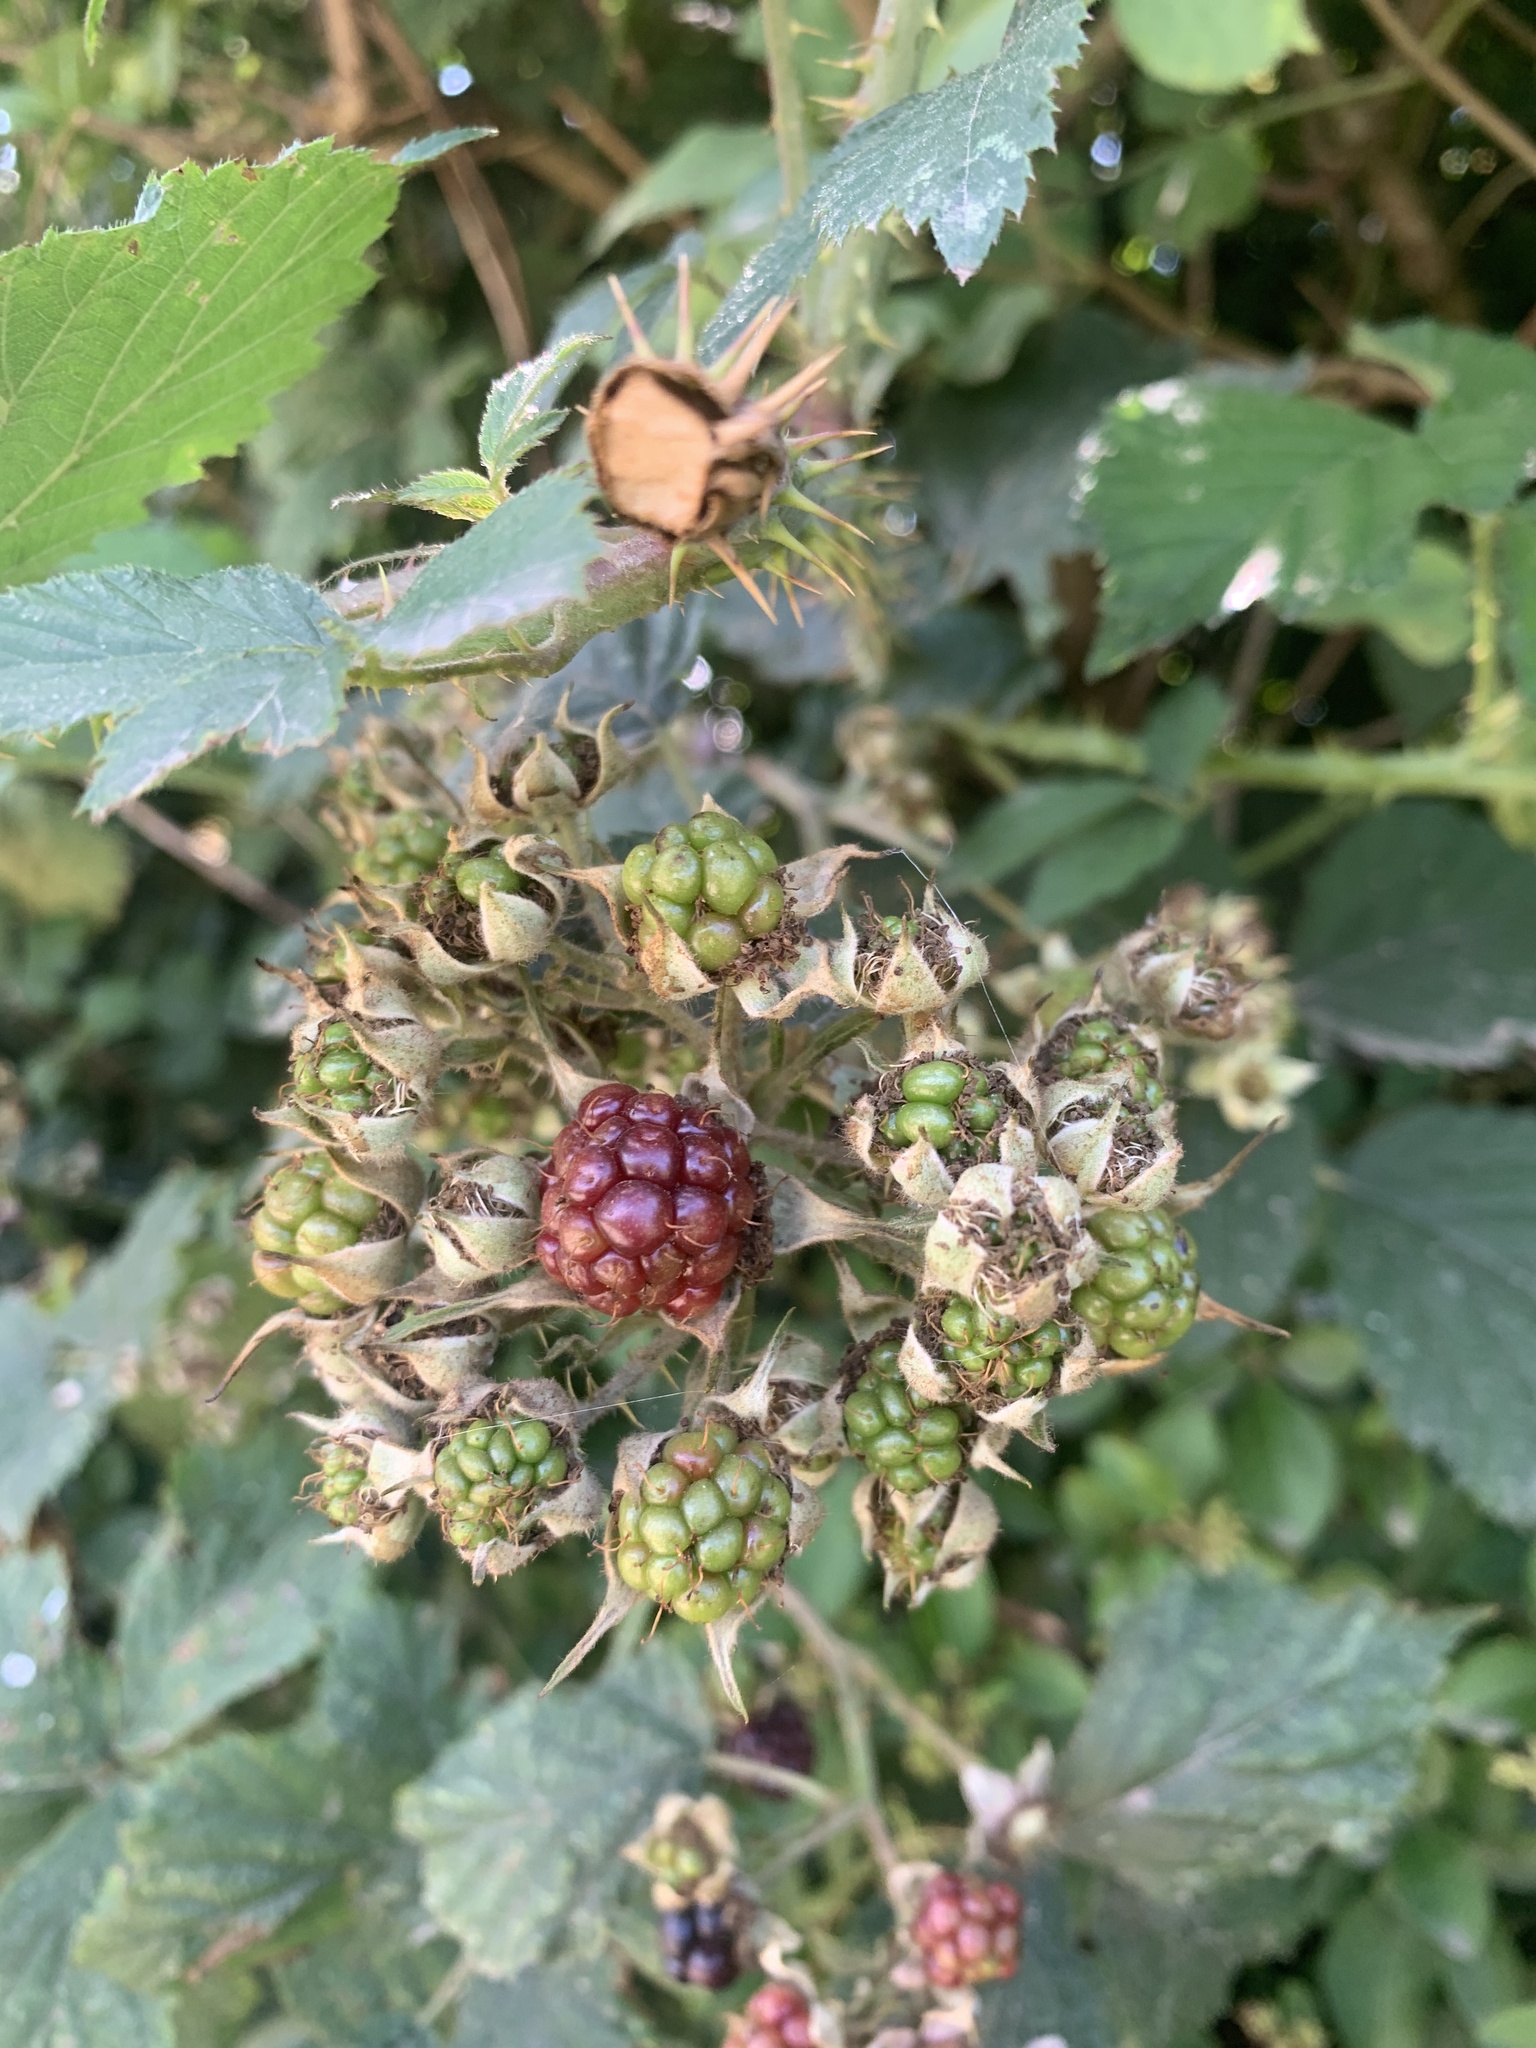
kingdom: Plantae
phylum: Tracheophyta
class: Magnoliopsida
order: Rosales
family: Rosaceae
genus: Rubus
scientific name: Rubus fruticosus
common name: Blackberry, bramble
